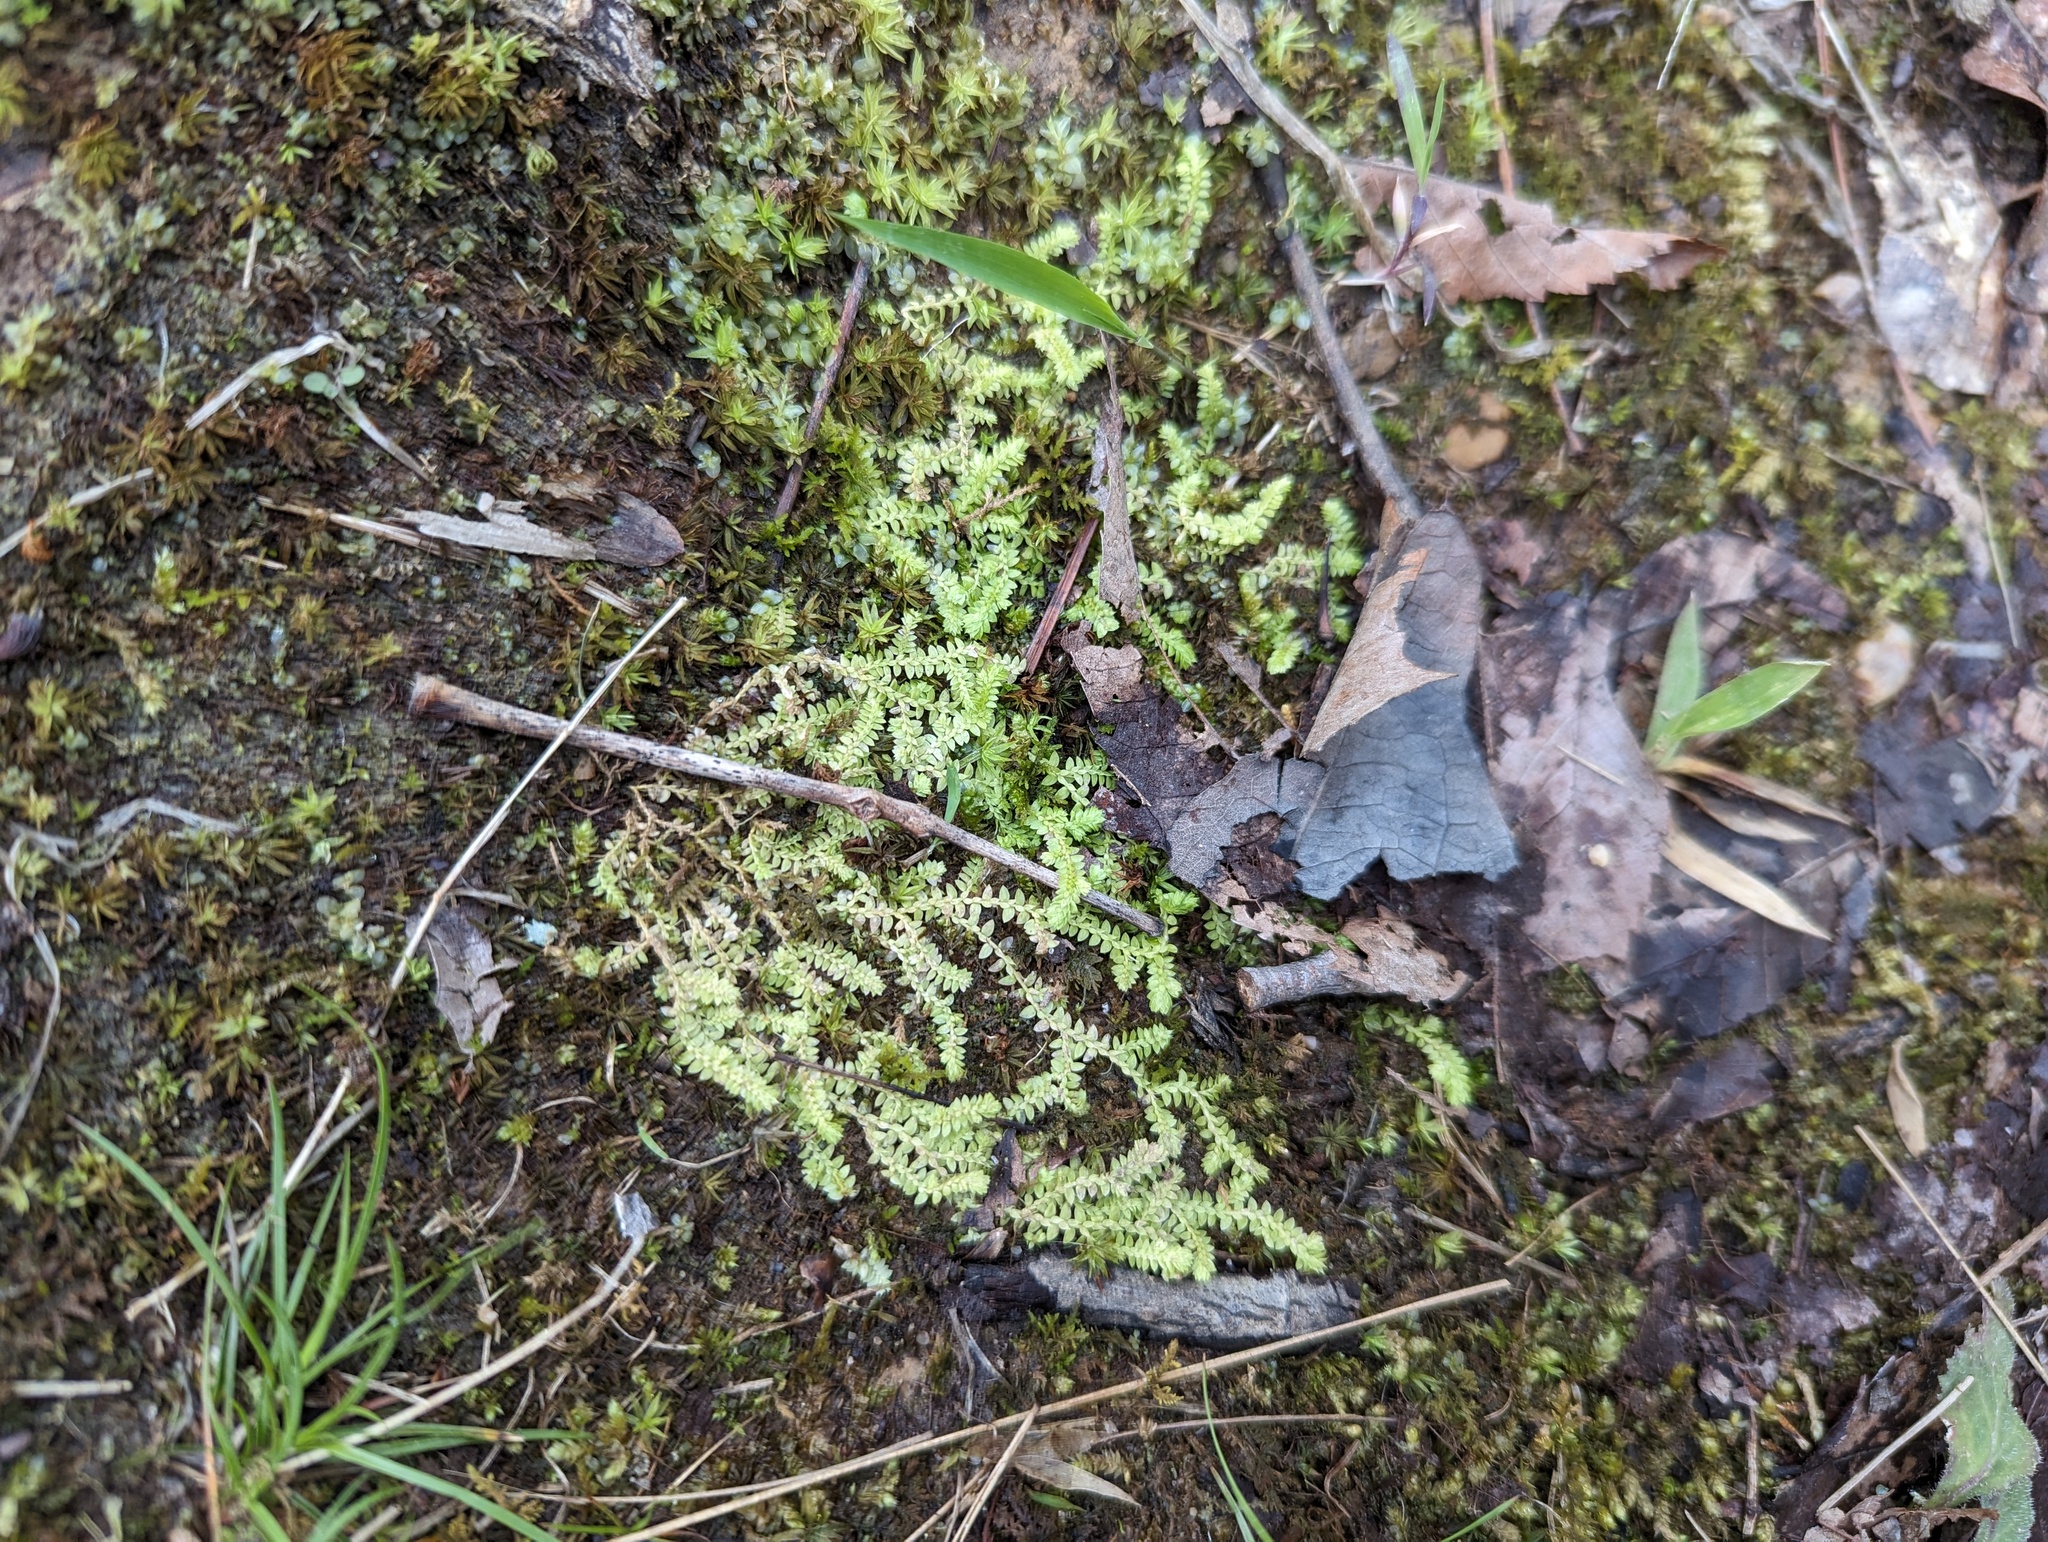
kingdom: Plantae
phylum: Tracheophyta
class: Lycopodiopsida
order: Selaginellales
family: Selaginellaceae
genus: Selaginella
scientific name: Selaginella apoda
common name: Creeping spikemoss
